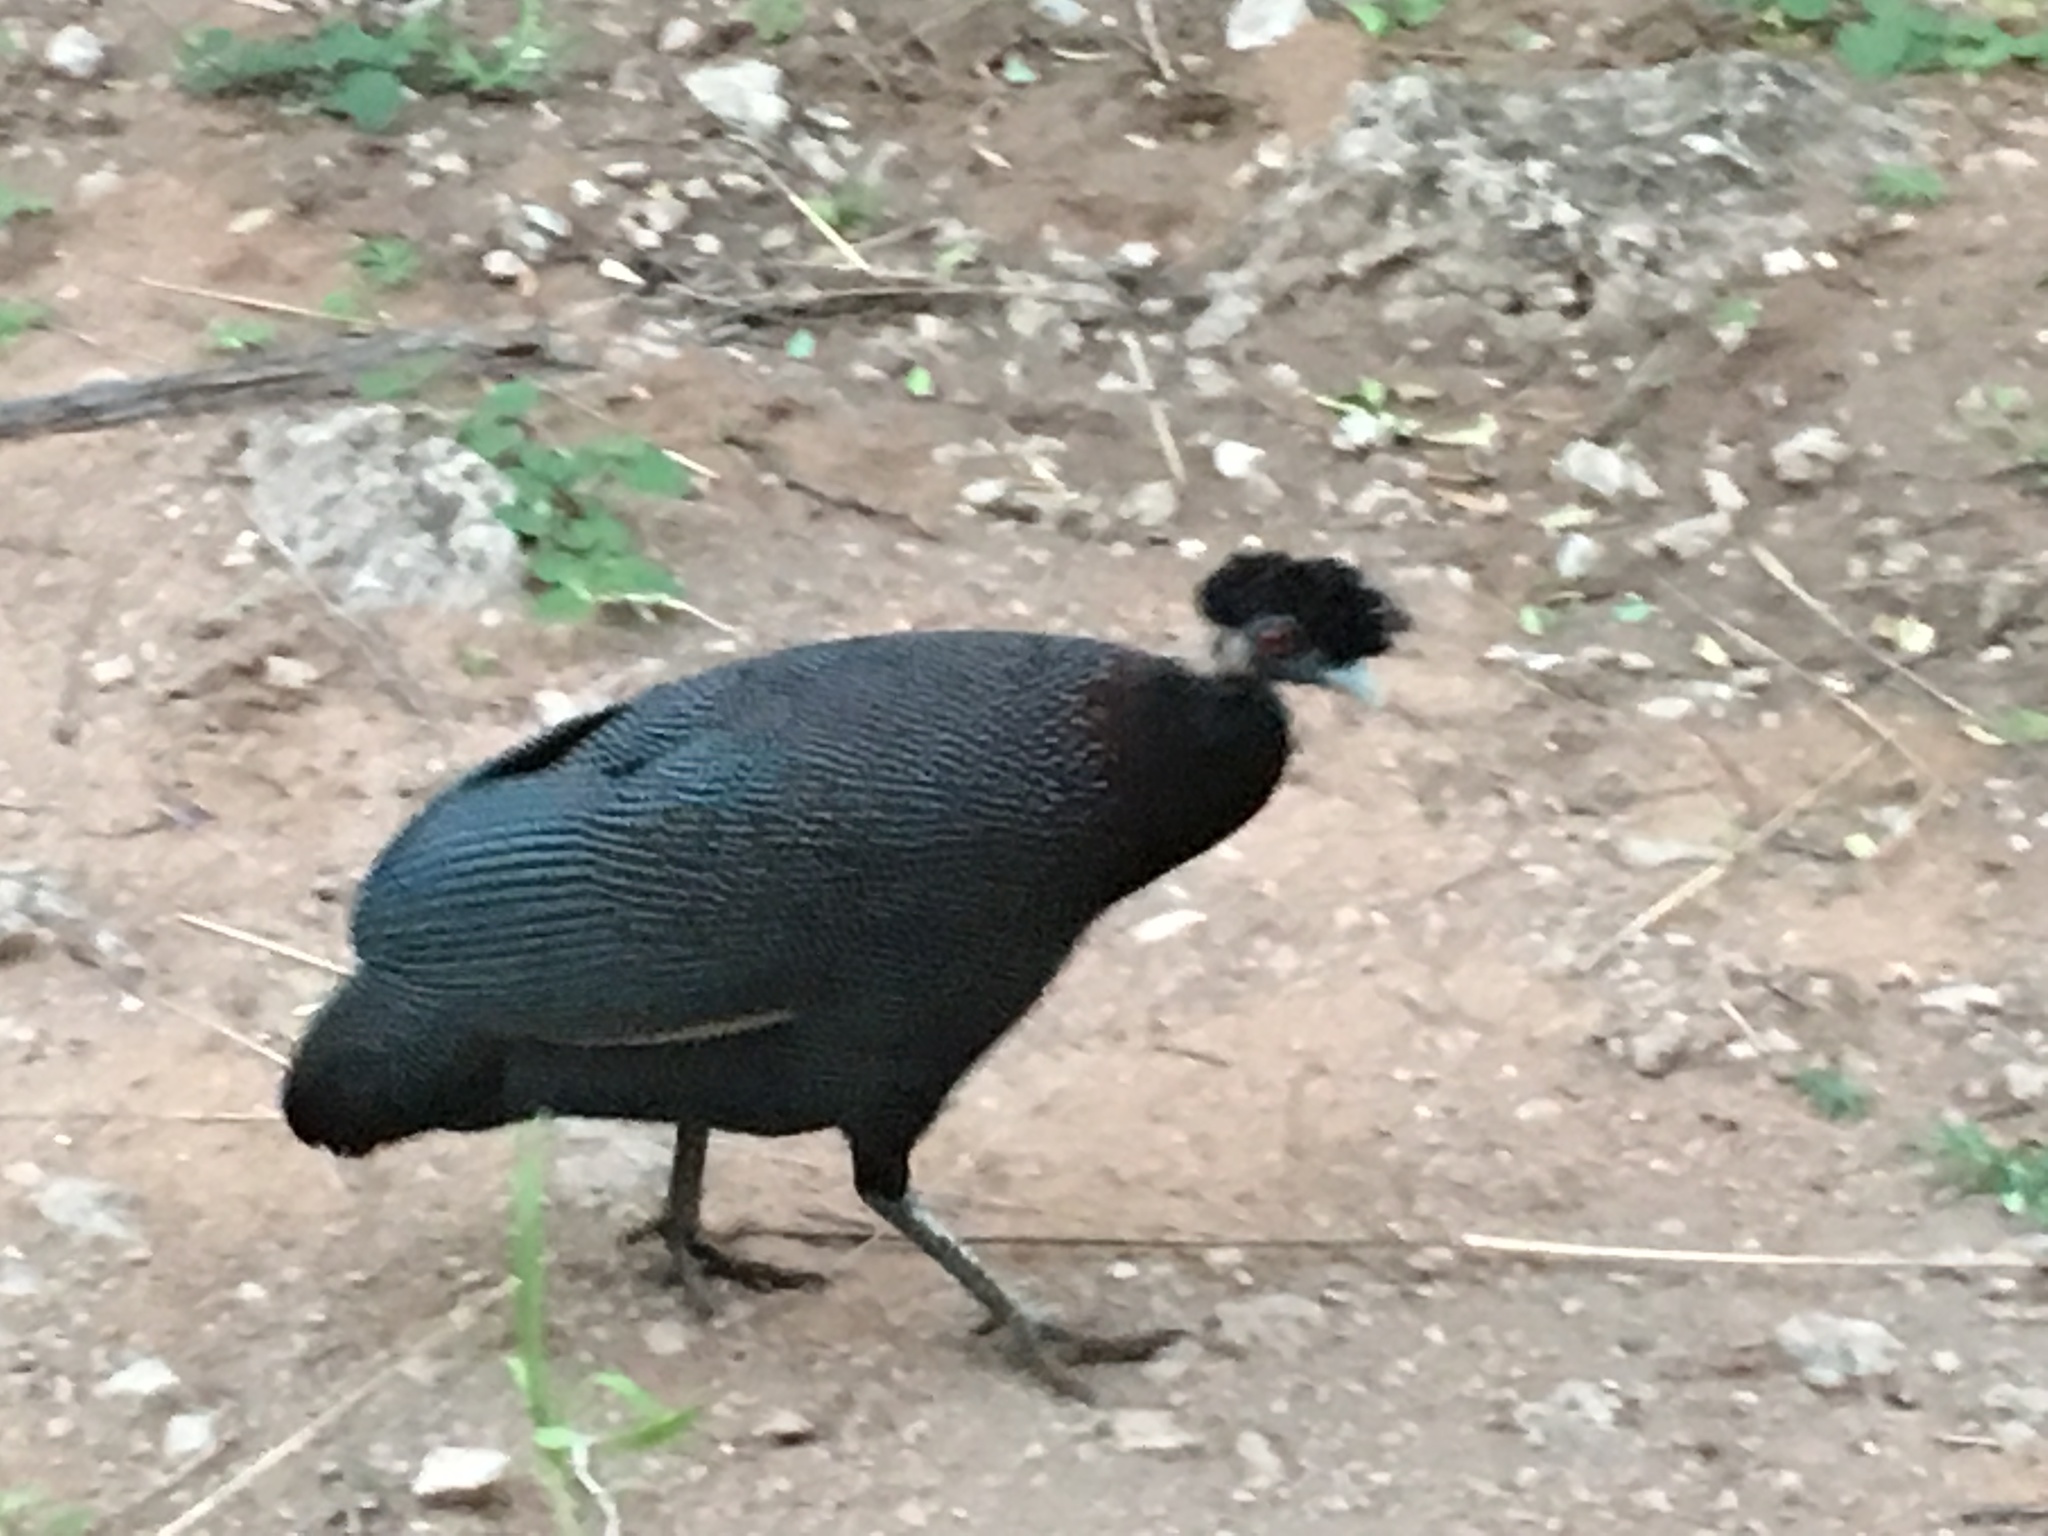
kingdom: Animalia
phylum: Chordata
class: Aves
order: Galliformes
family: Numididae
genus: Guttera
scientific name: Guttera pucherani
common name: Crested guineafowl
